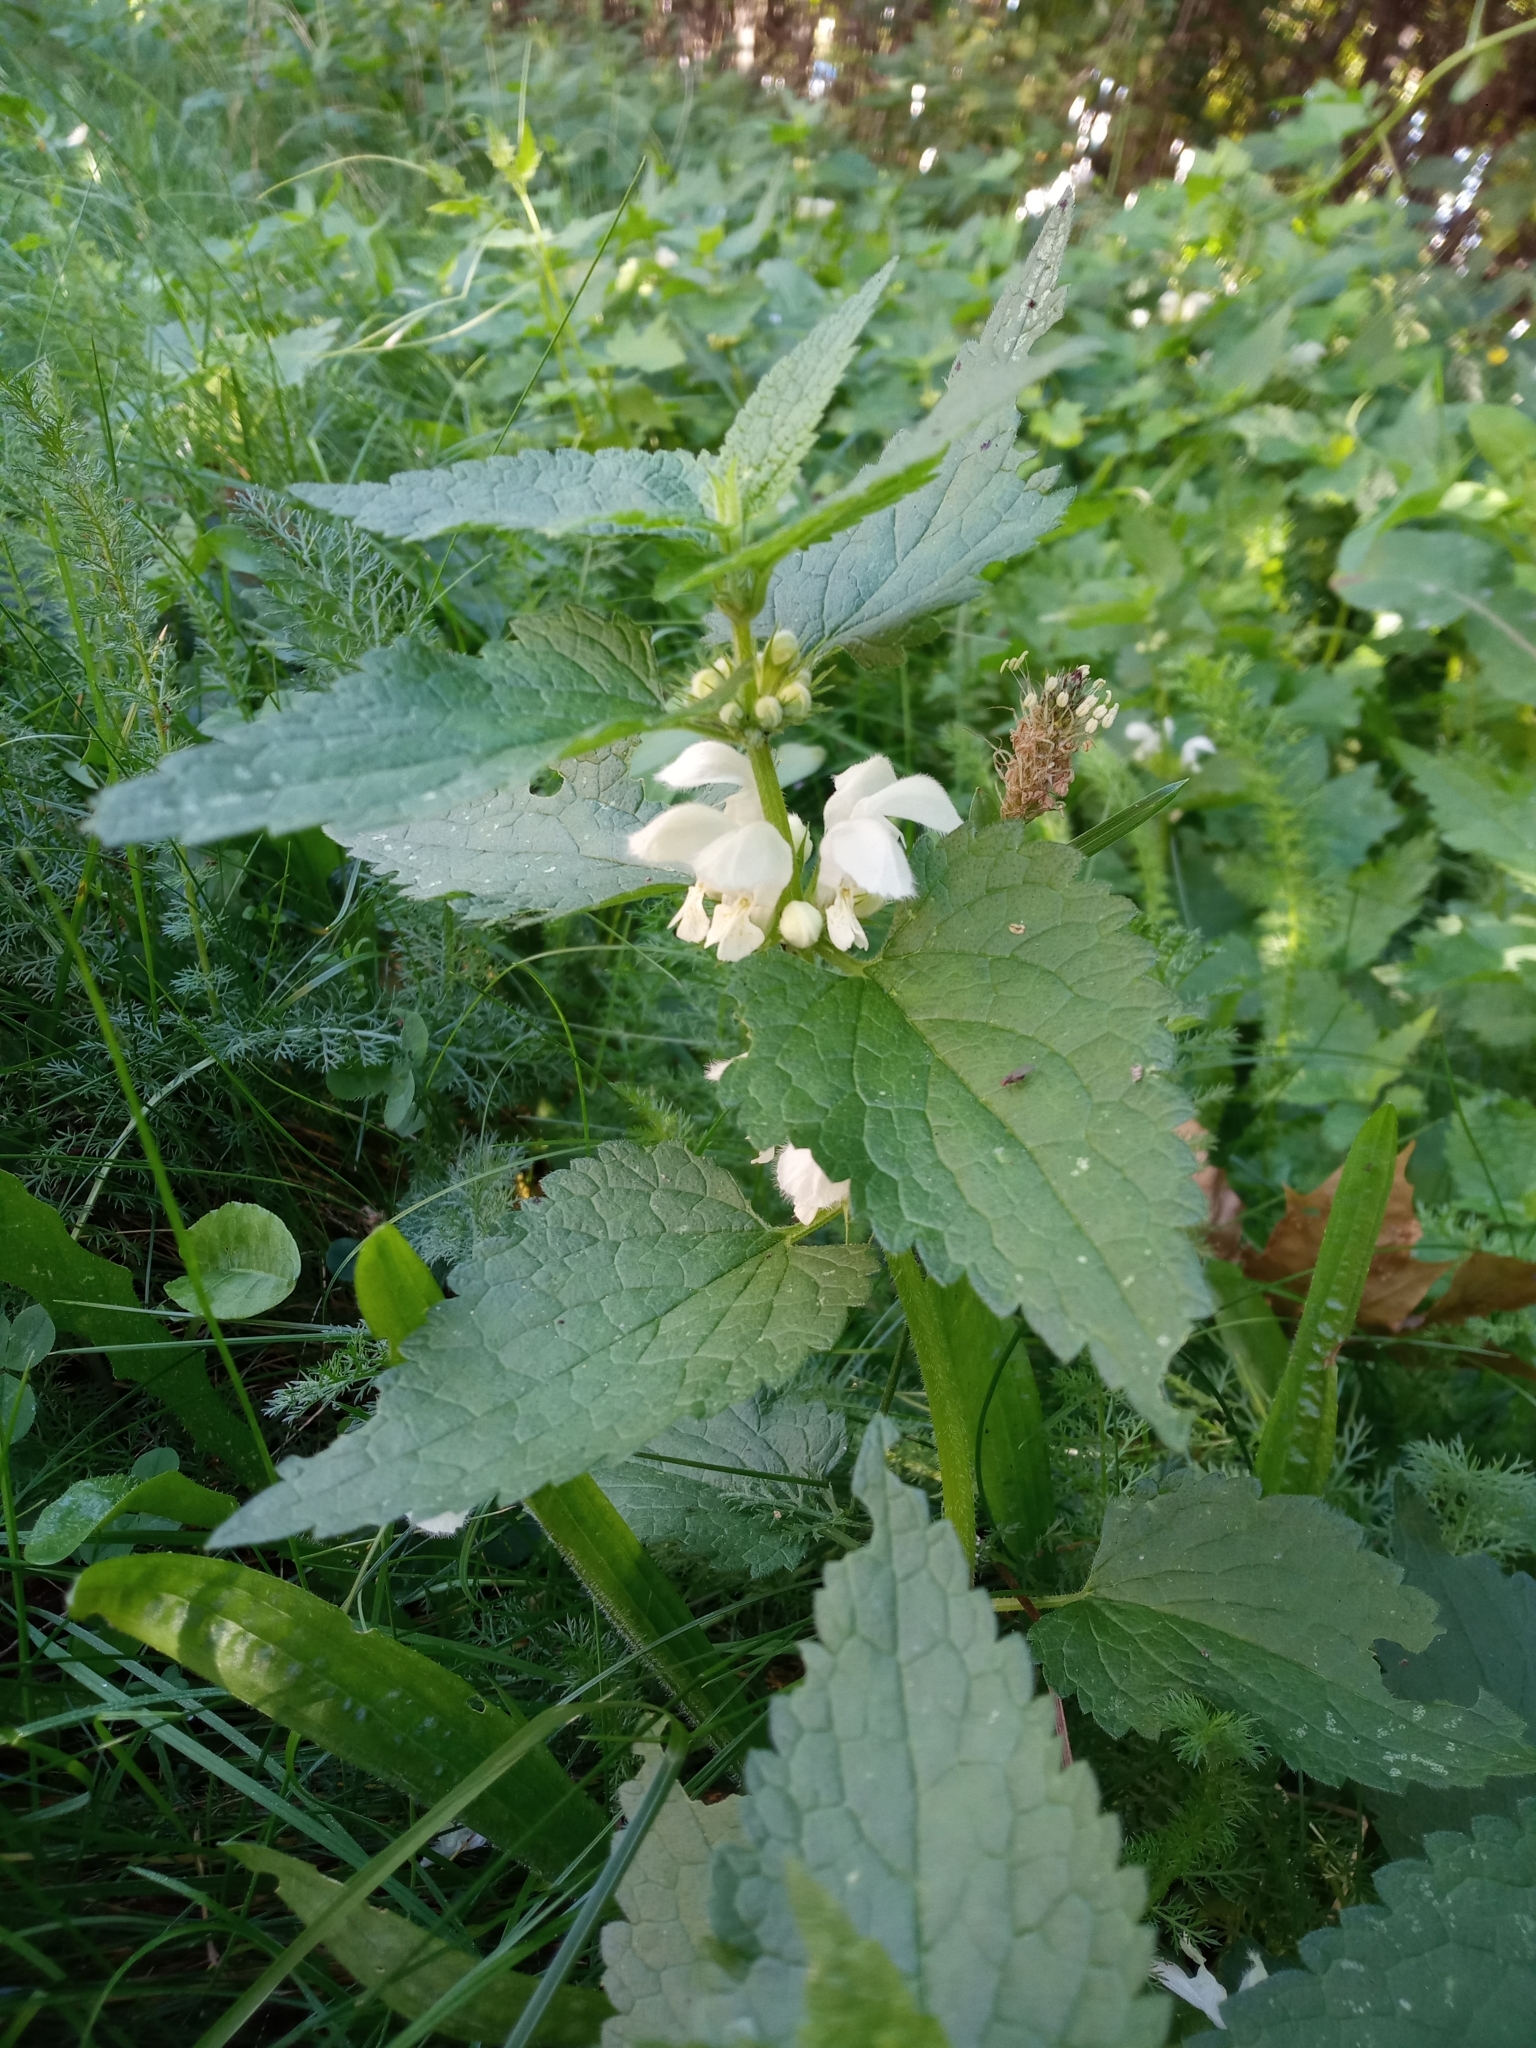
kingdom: Plantae
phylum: Tracheophyta
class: Magnoliopsida
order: Lamiales
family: Lamiaceae
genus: Lamium
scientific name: Lamium album
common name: White dead-nettle
